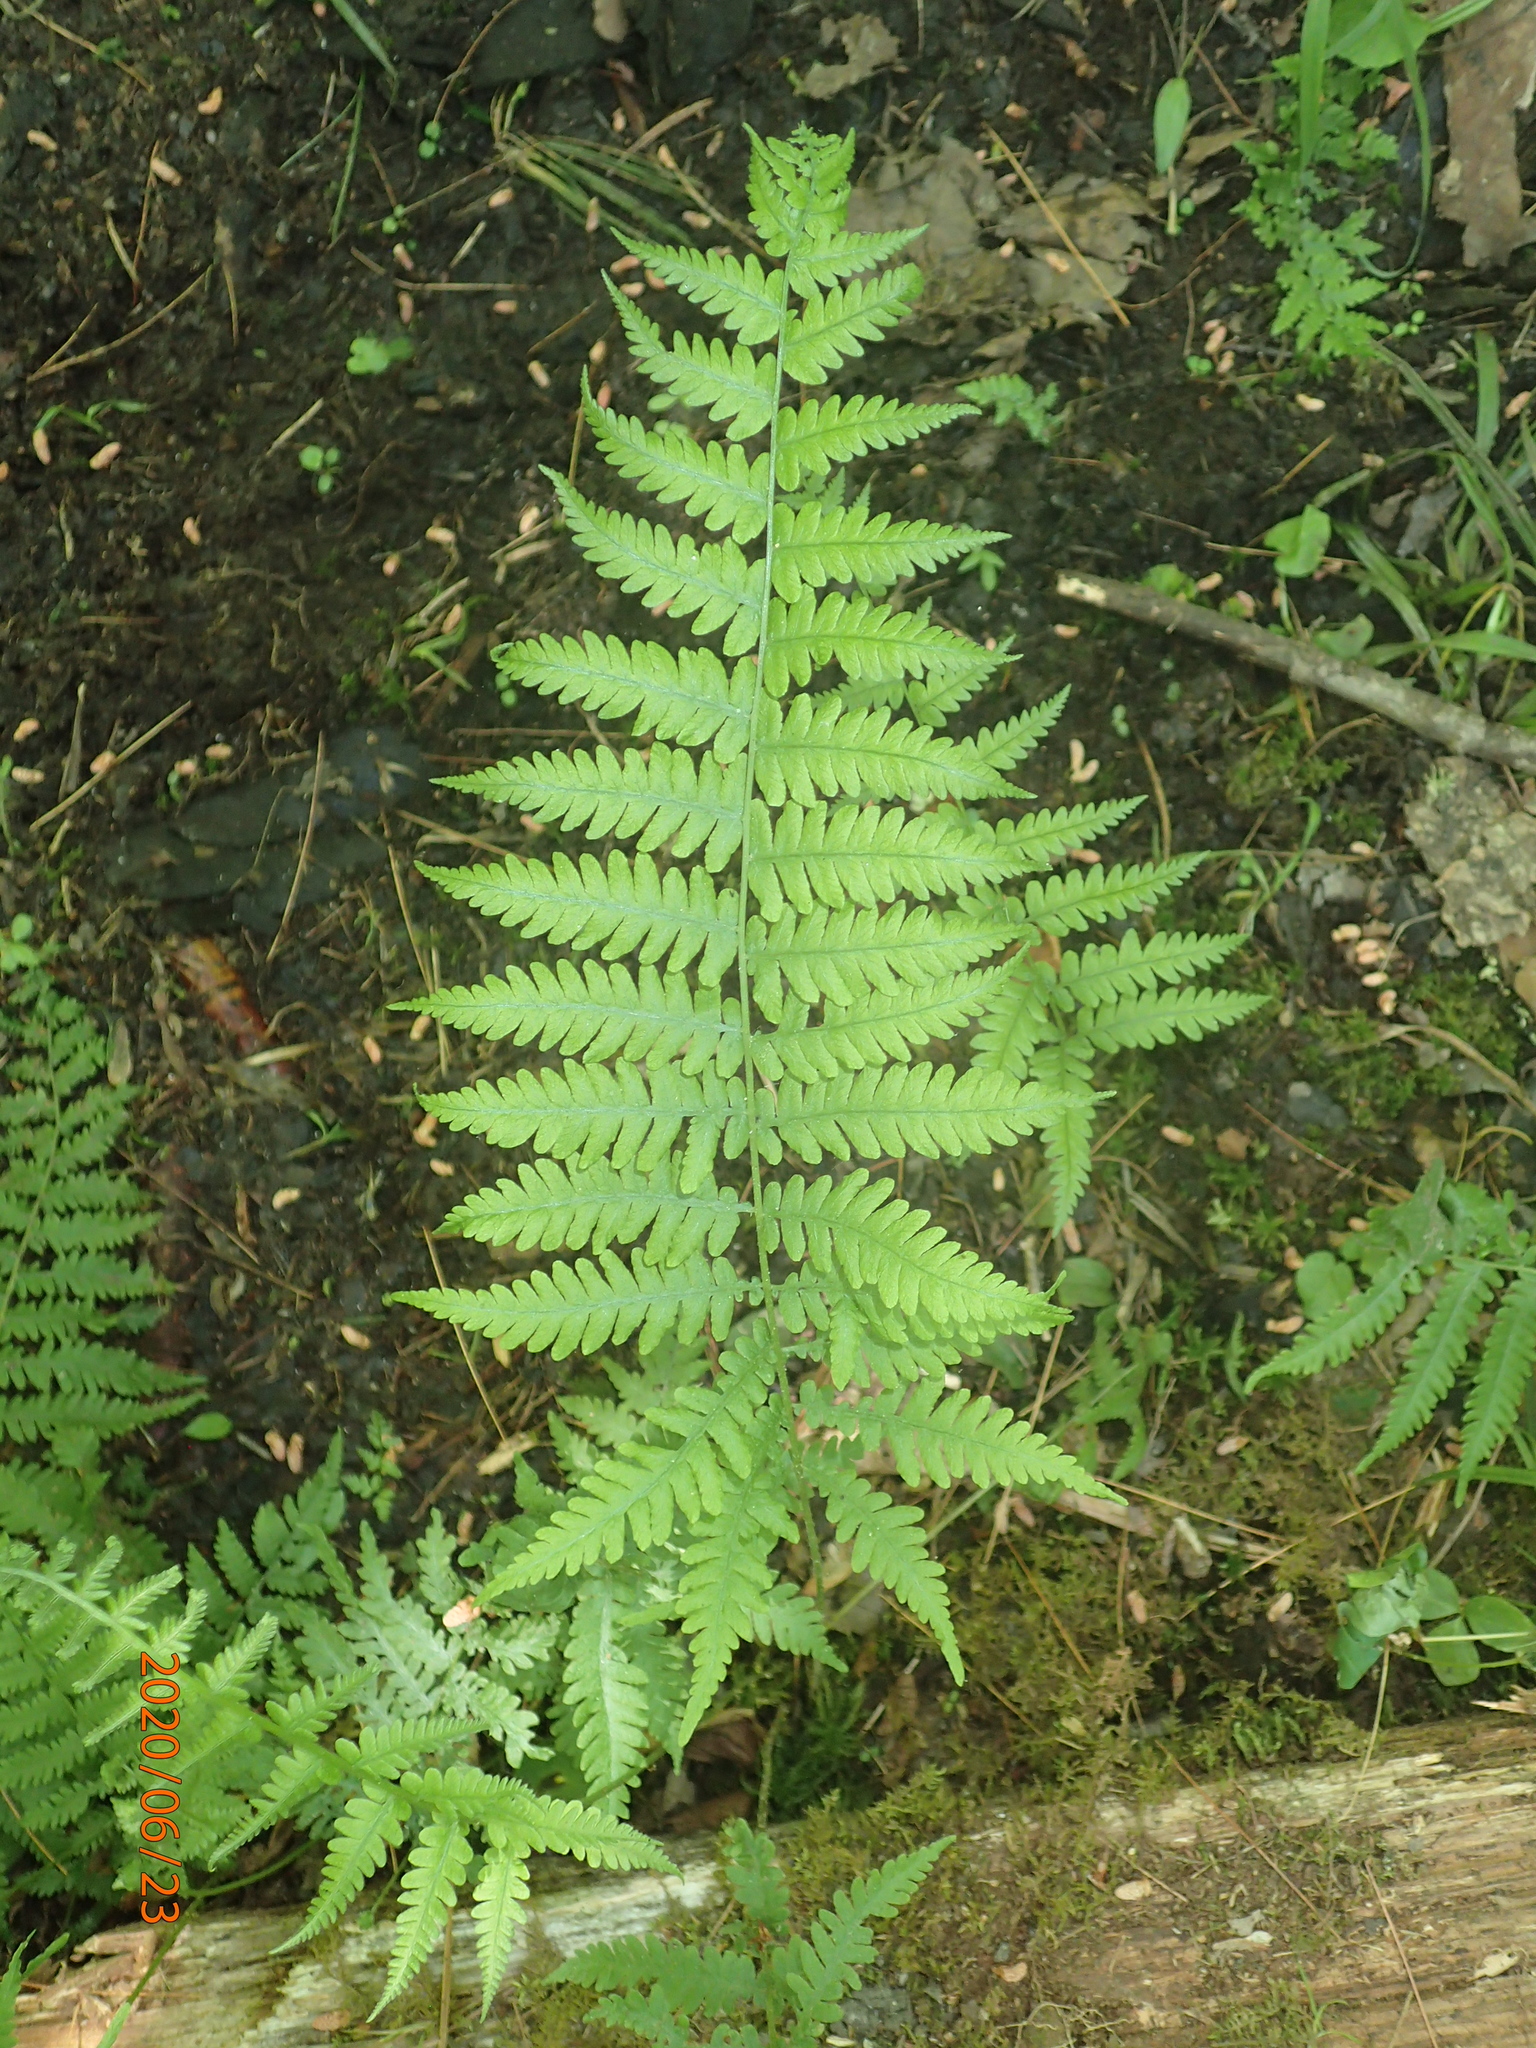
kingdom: Plantae
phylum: Tracheophyta
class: Polypodiopsida
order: Polypodiales
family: Thelypteridaceae
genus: Coryphopteris
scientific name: Coryphopteris simulata
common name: Bog fern
